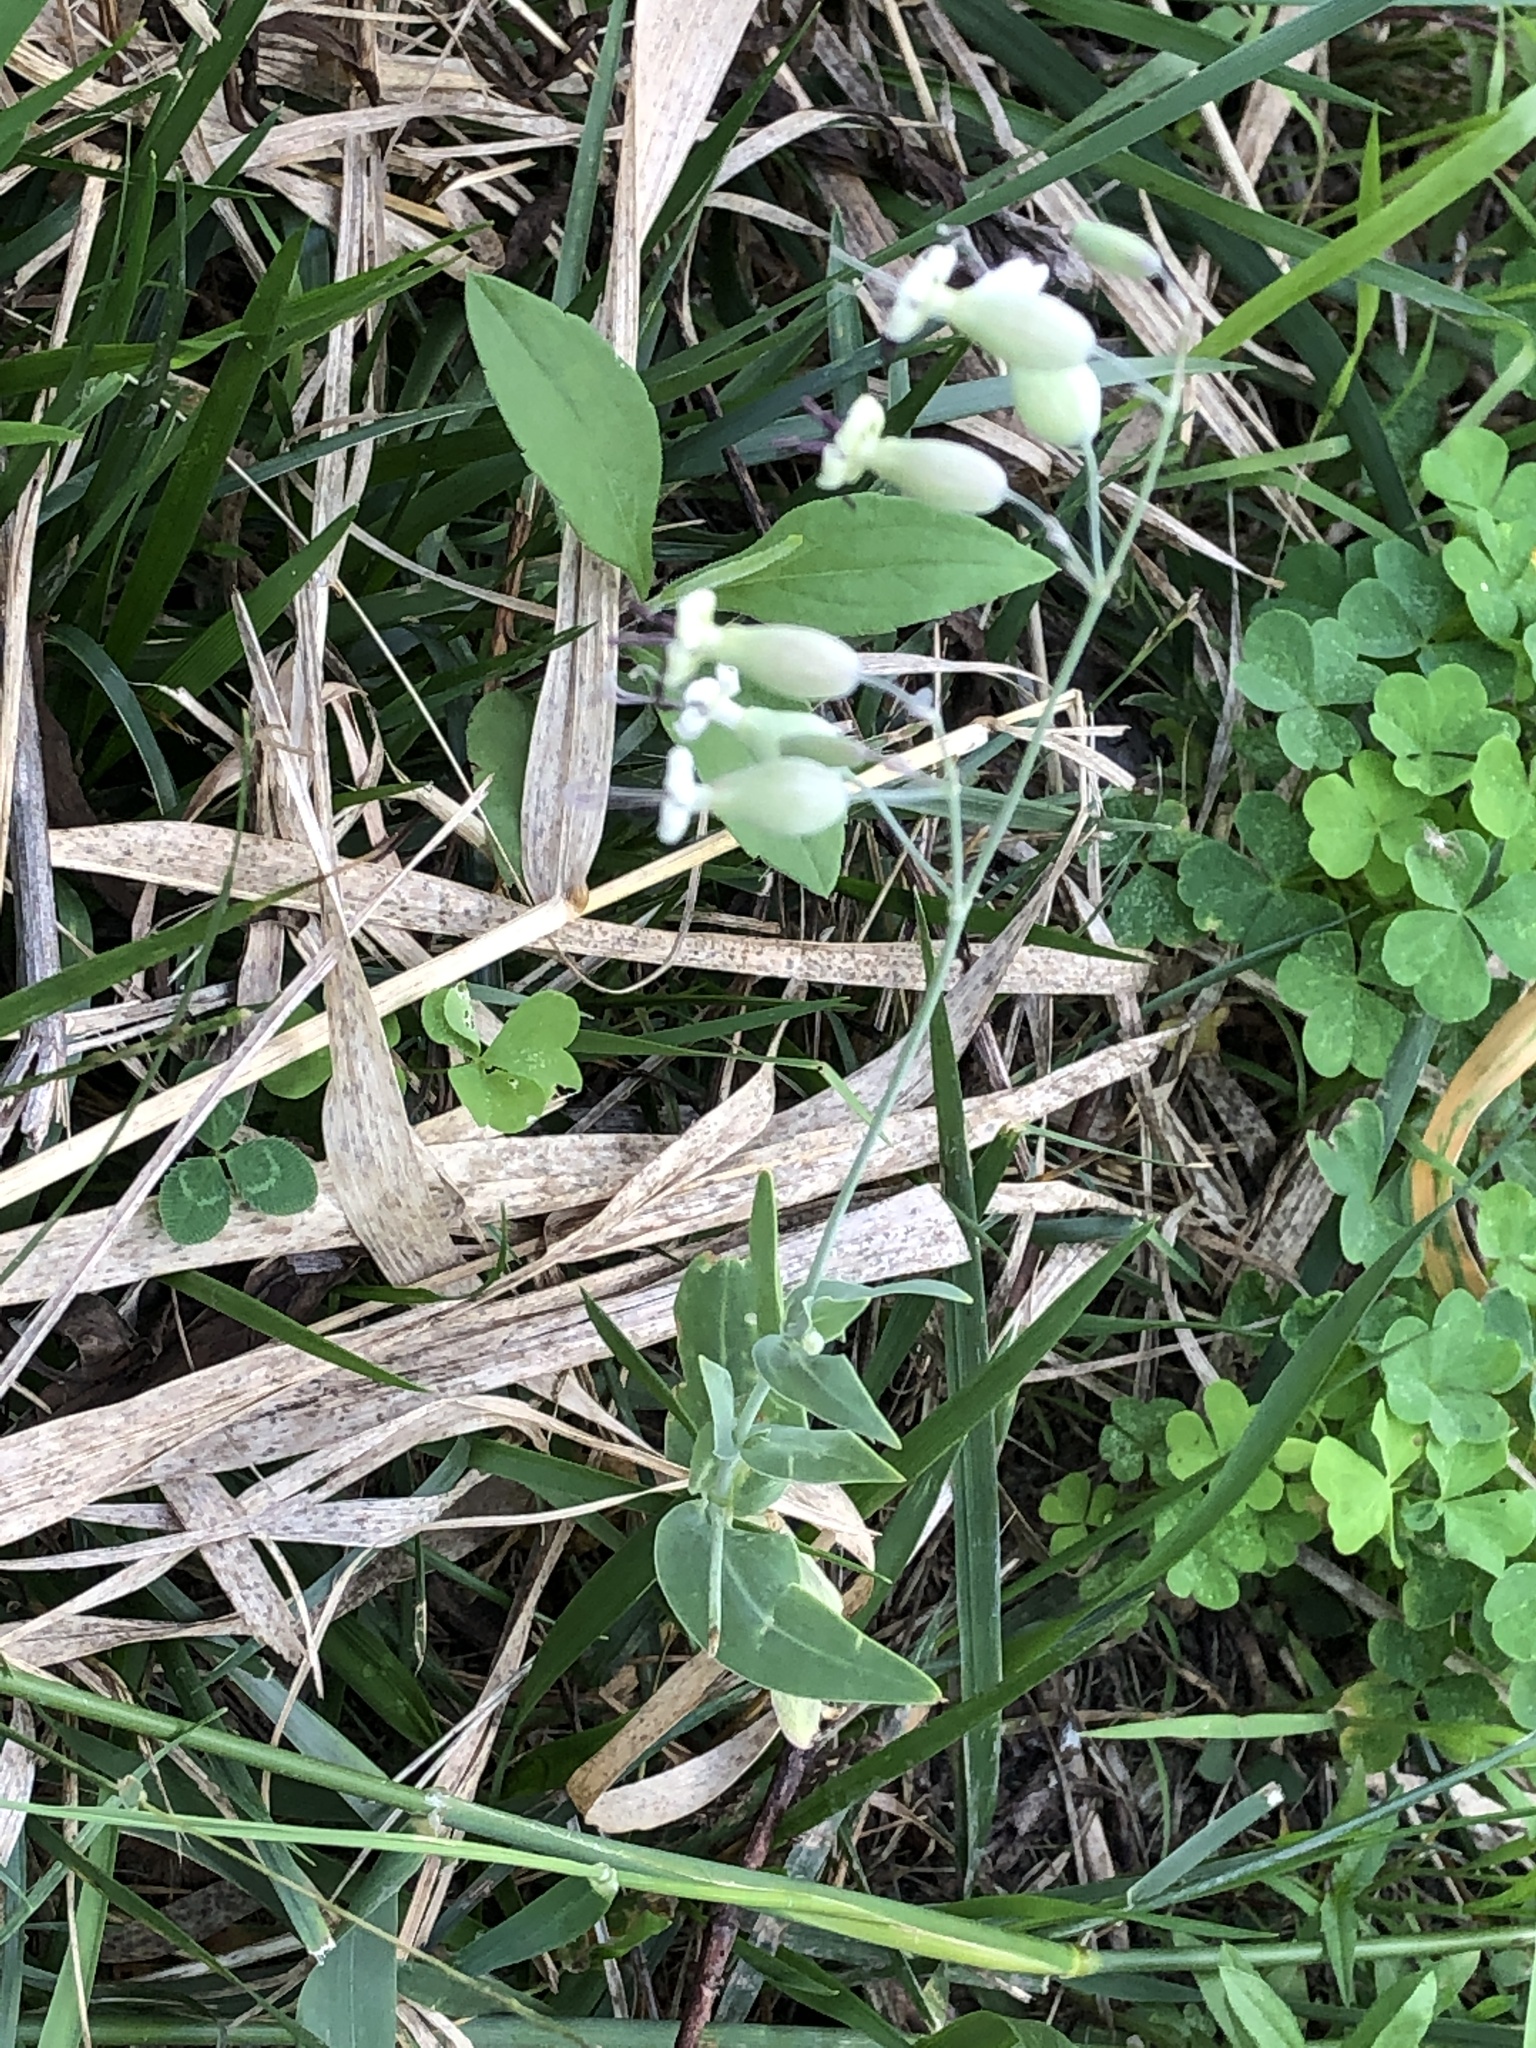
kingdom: Plantae
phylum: Tracheophyta
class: Magnoliopsida
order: Caryophyllales
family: Caryophyllaceae
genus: Silene
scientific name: Silene csereii
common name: Balkan catchfly
